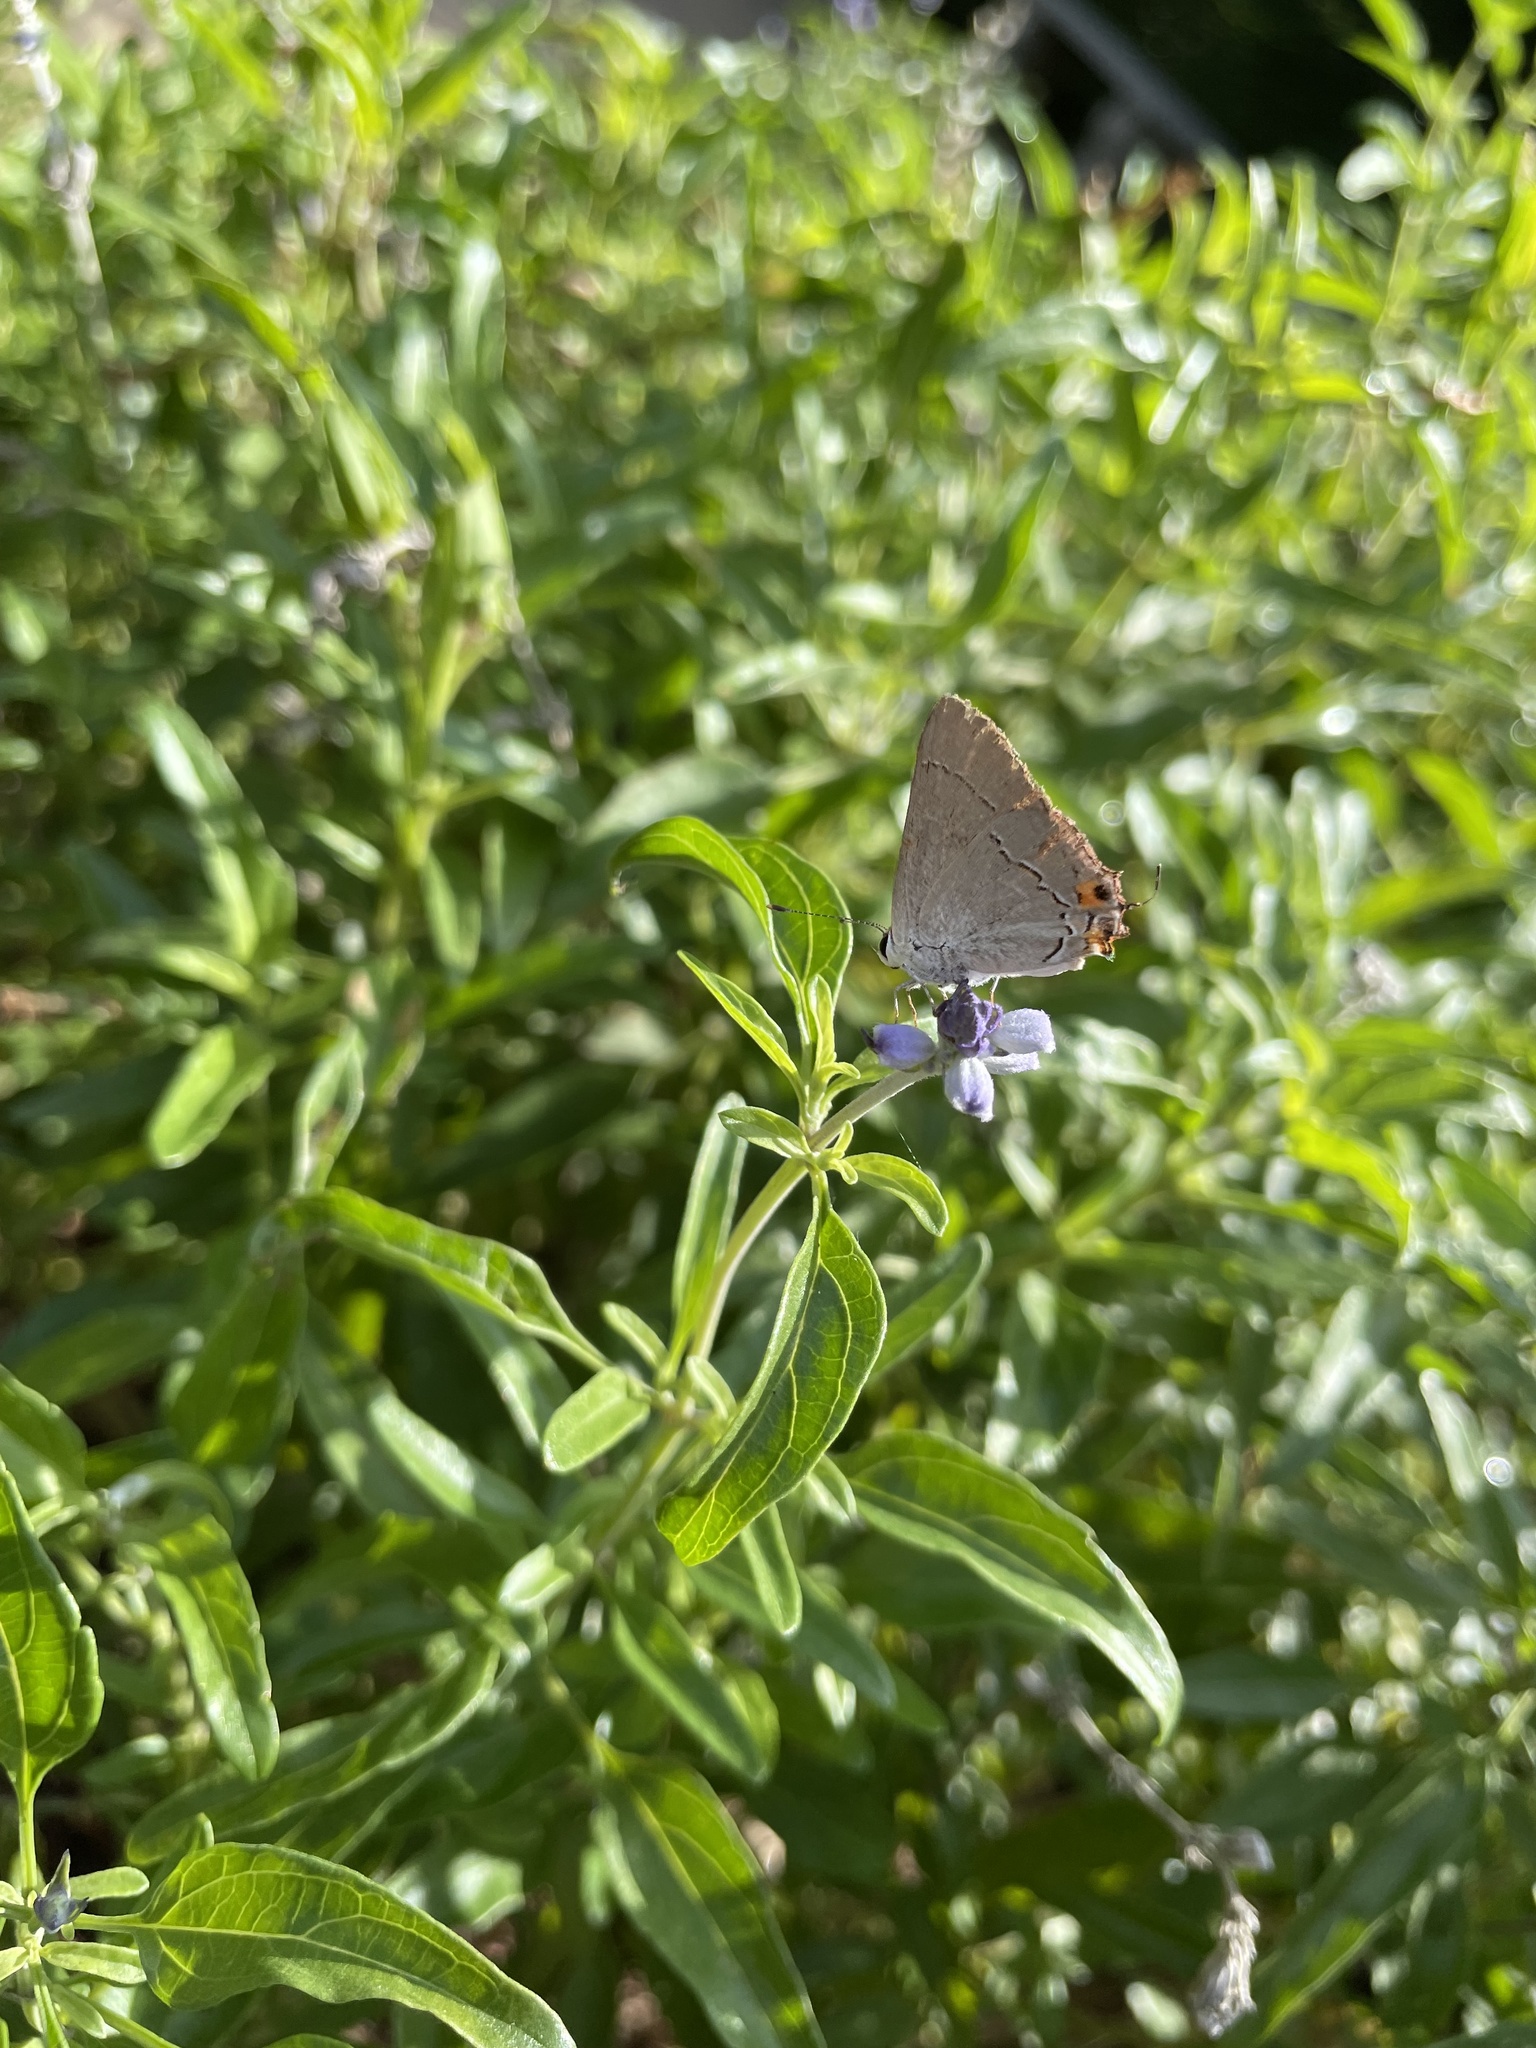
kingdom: Animalia
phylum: Arthropoda
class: Insecta
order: Lepidoptera
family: Lycaenidae
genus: Strymon
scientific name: Strymon melinus
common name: Gray hairstreak
